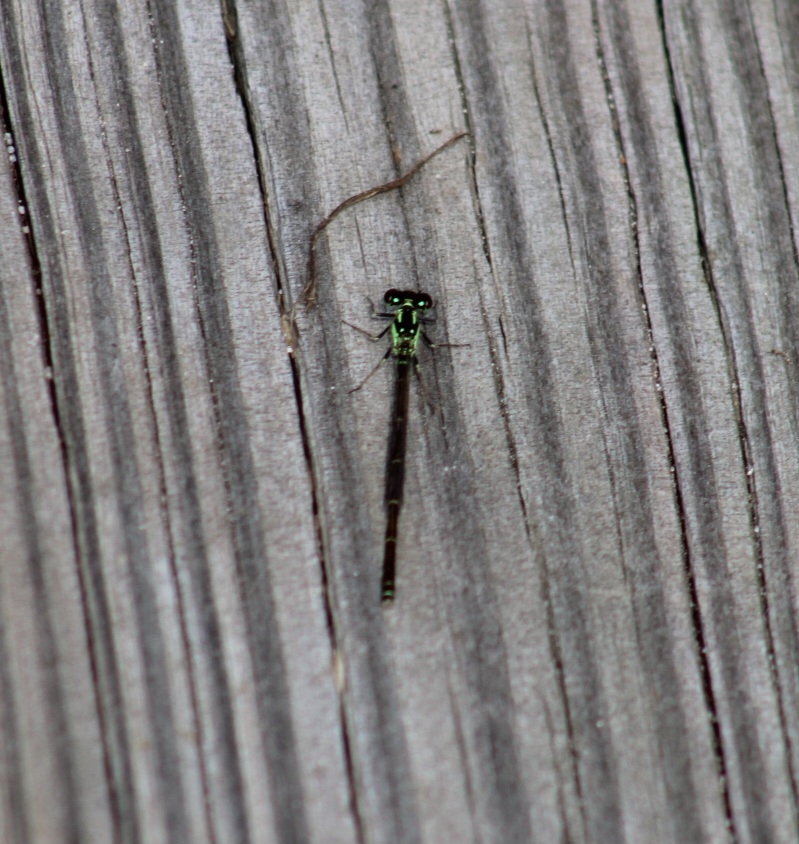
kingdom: Animalia
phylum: Arthropoda
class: Insecta
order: Odonata
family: Coenagrionidae
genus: Ischnura
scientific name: Ischnura posita
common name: Fragile forktail
